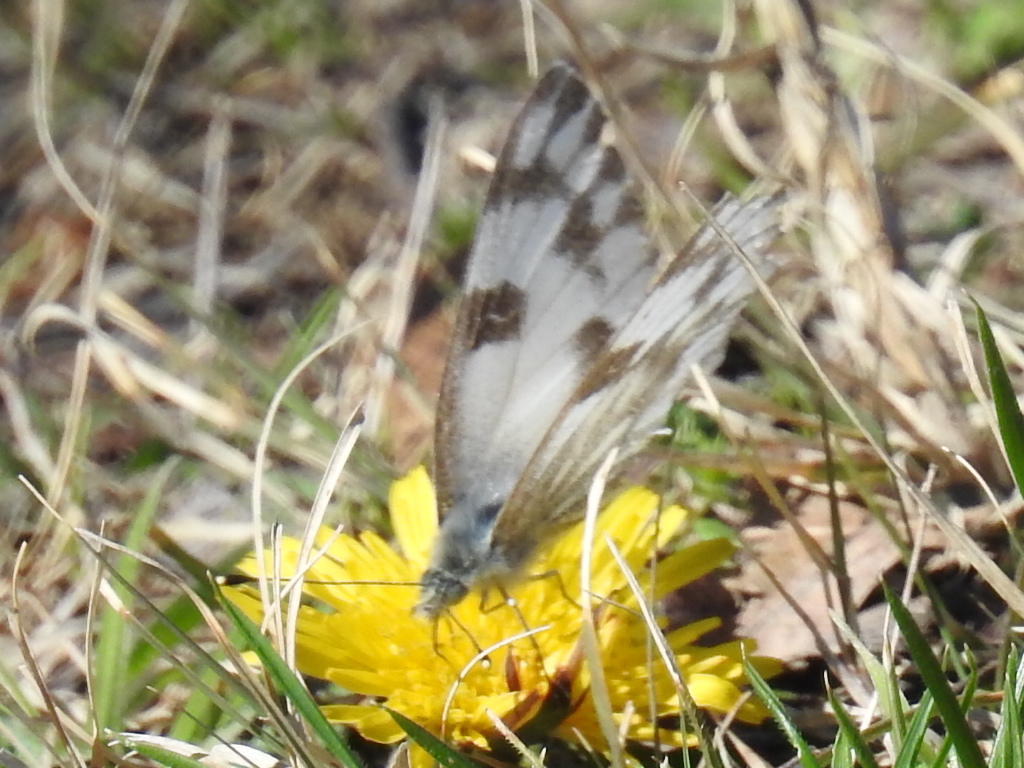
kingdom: Animalia
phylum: Arthropoda
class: Insecta
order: Lepidoptera
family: Pieridae
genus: Pontia
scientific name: Pontia protodice
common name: Checkered white
